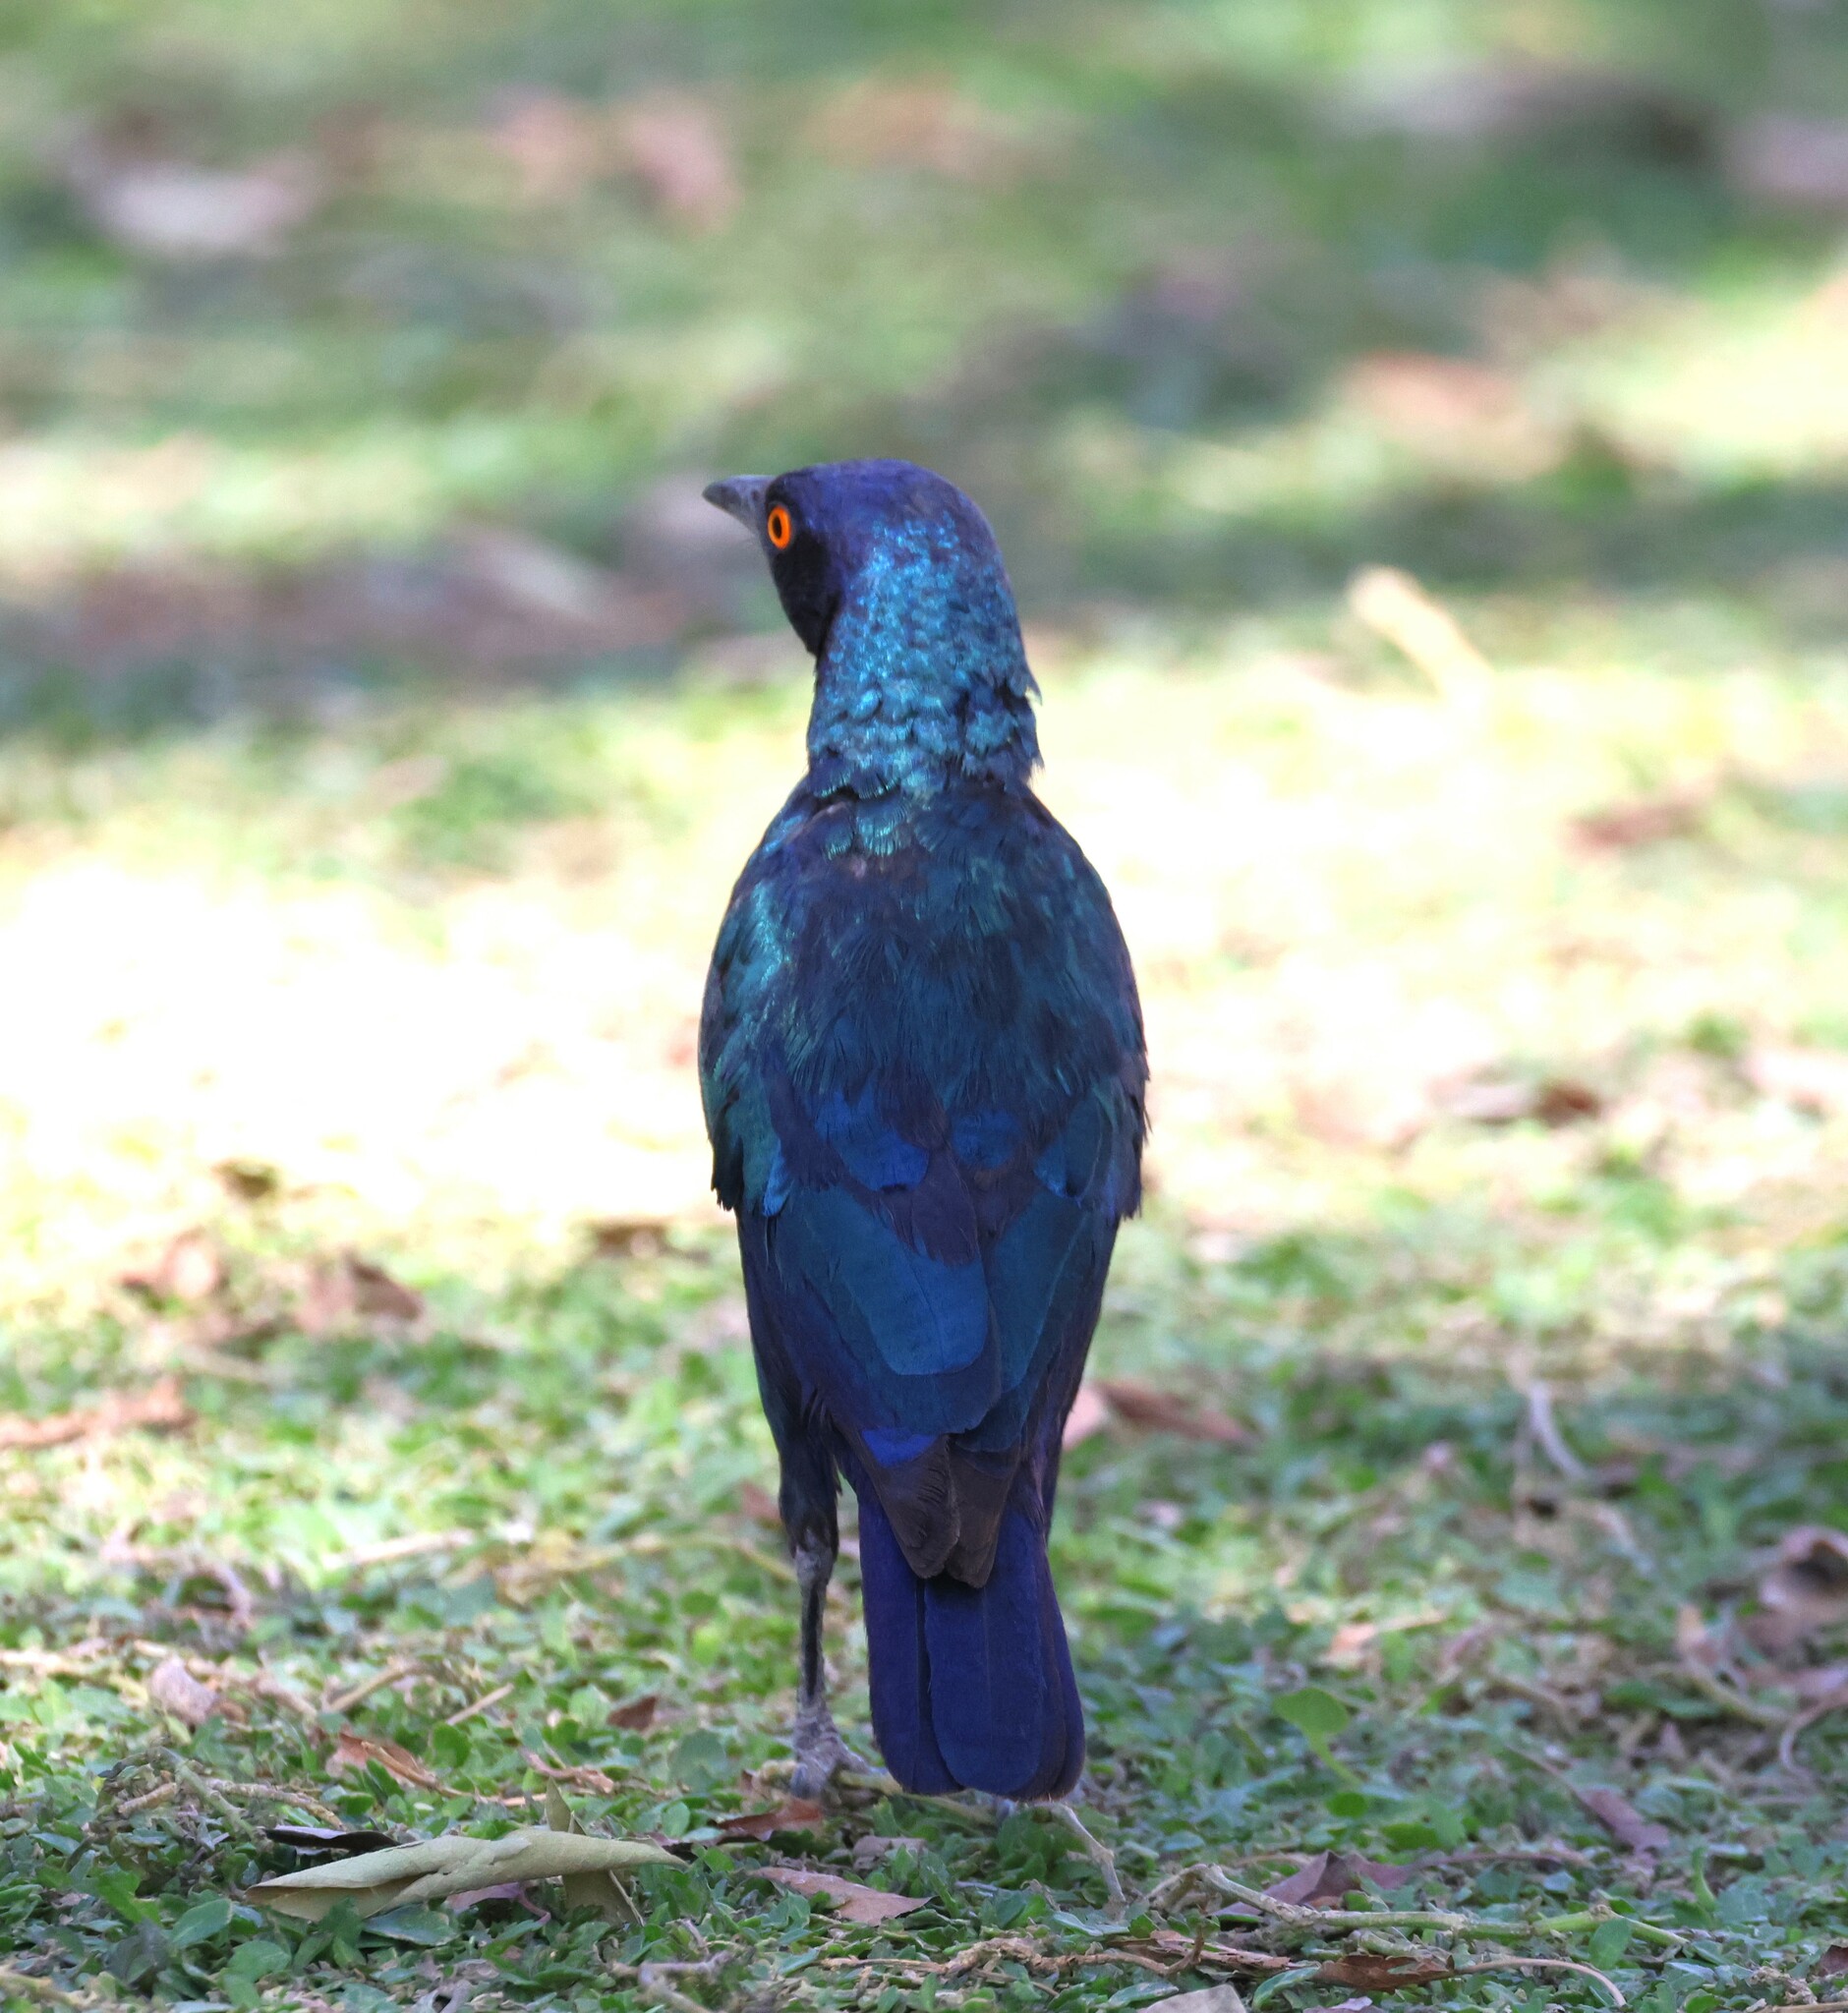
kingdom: Animalia
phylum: Chordata
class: Aves
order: Passeriformes
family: Sturnidae
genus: Lamprotornis
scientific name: Lamprotornis nitens
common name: Cape starling
